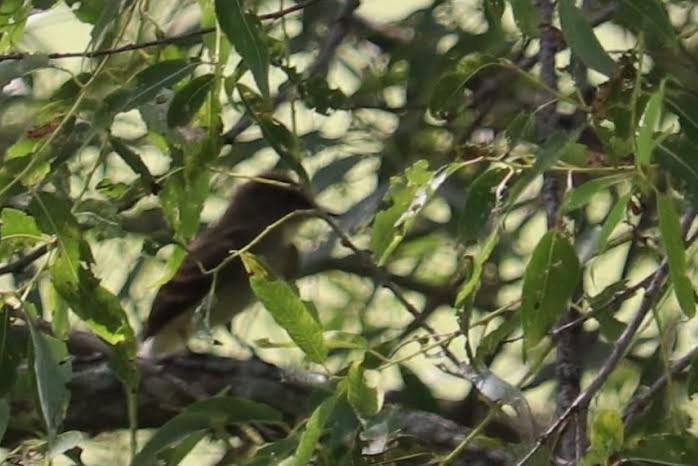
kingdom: Animalia
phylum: Chordata
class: Aves
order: Passeriformes
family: Tyrannidae
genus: Sayornis
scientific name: Sayornis phoebe
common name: Eastern phoebe
